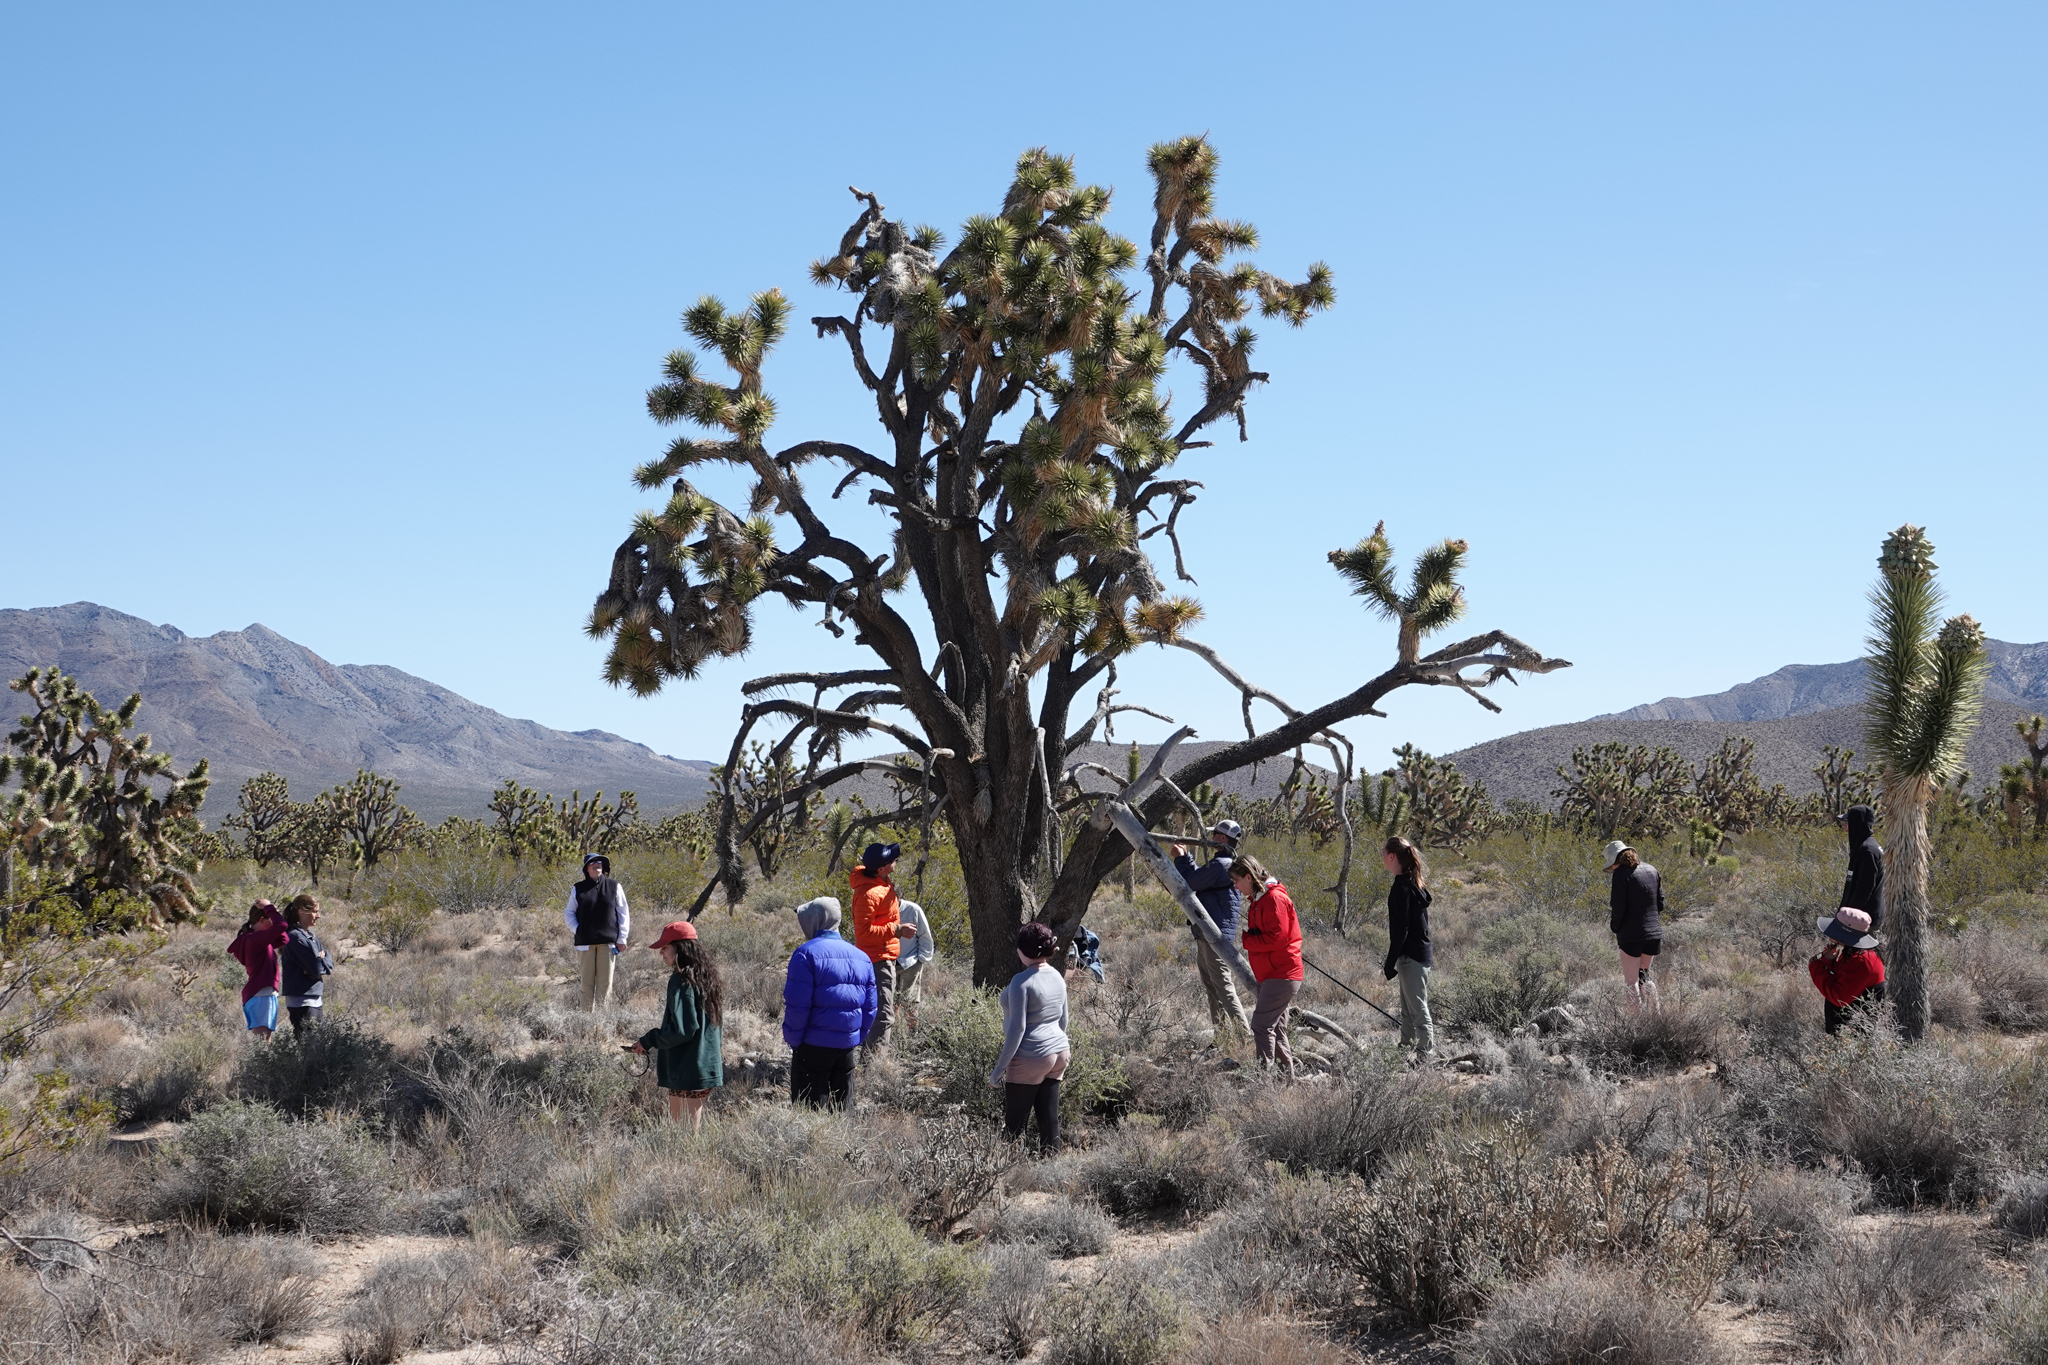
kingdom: Plantae
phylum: Tracheophyta
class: Liliopsida
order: Asparagales
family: Asparagaceae
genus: Yucca
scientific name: Yucca brevifolia
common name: Joshua tree
